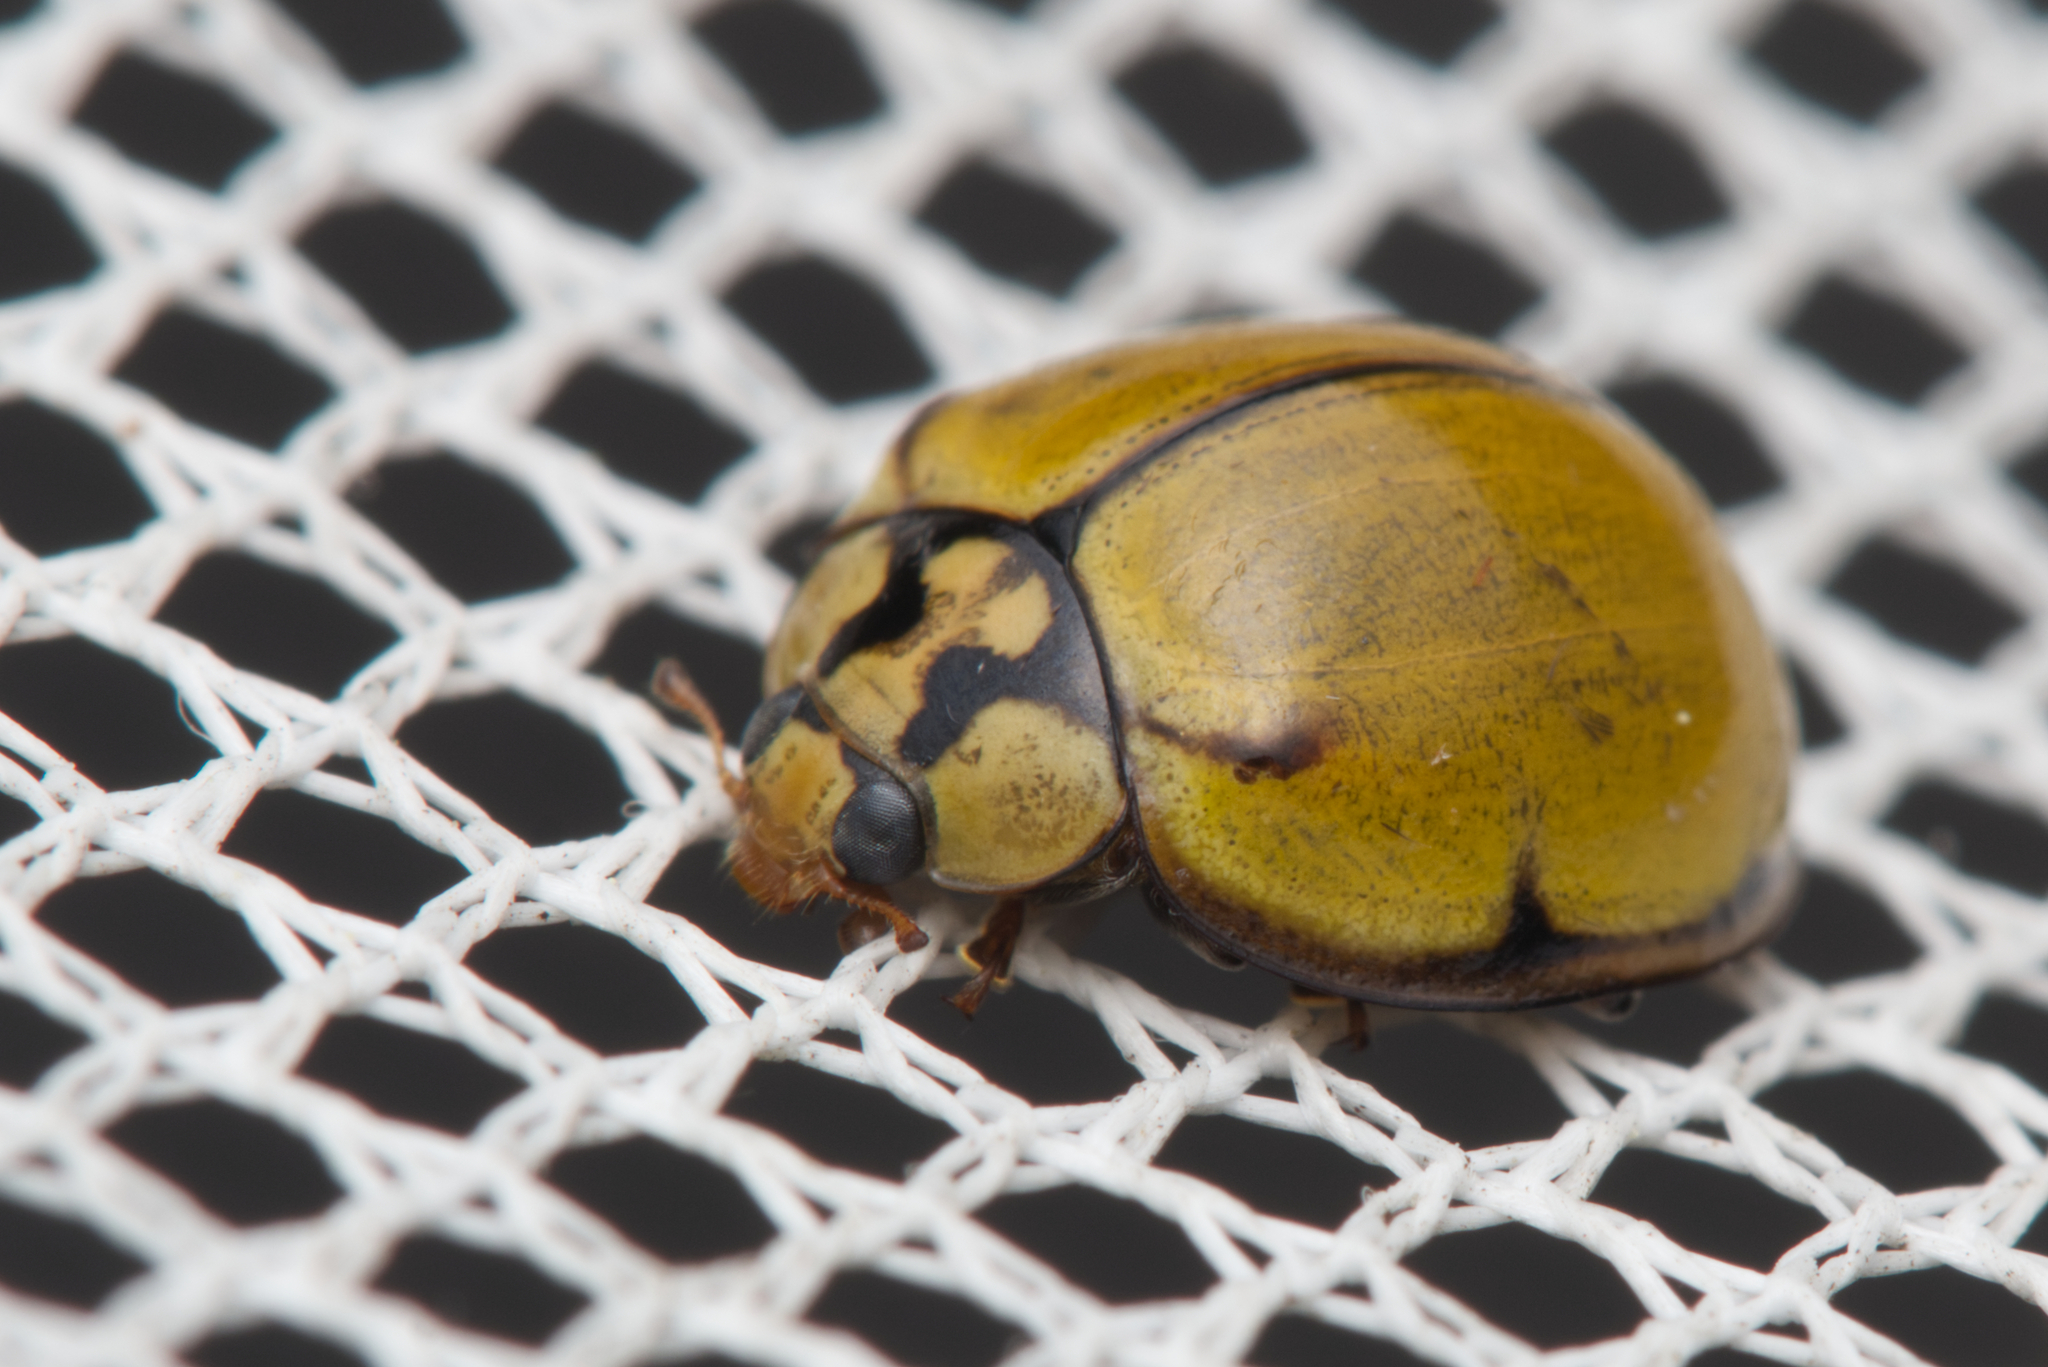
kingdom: Animalia
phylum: Arthropoda
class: Insecta
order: Coleoptera
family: Coccinellidae
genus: Harmonia
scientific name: Harmonia
